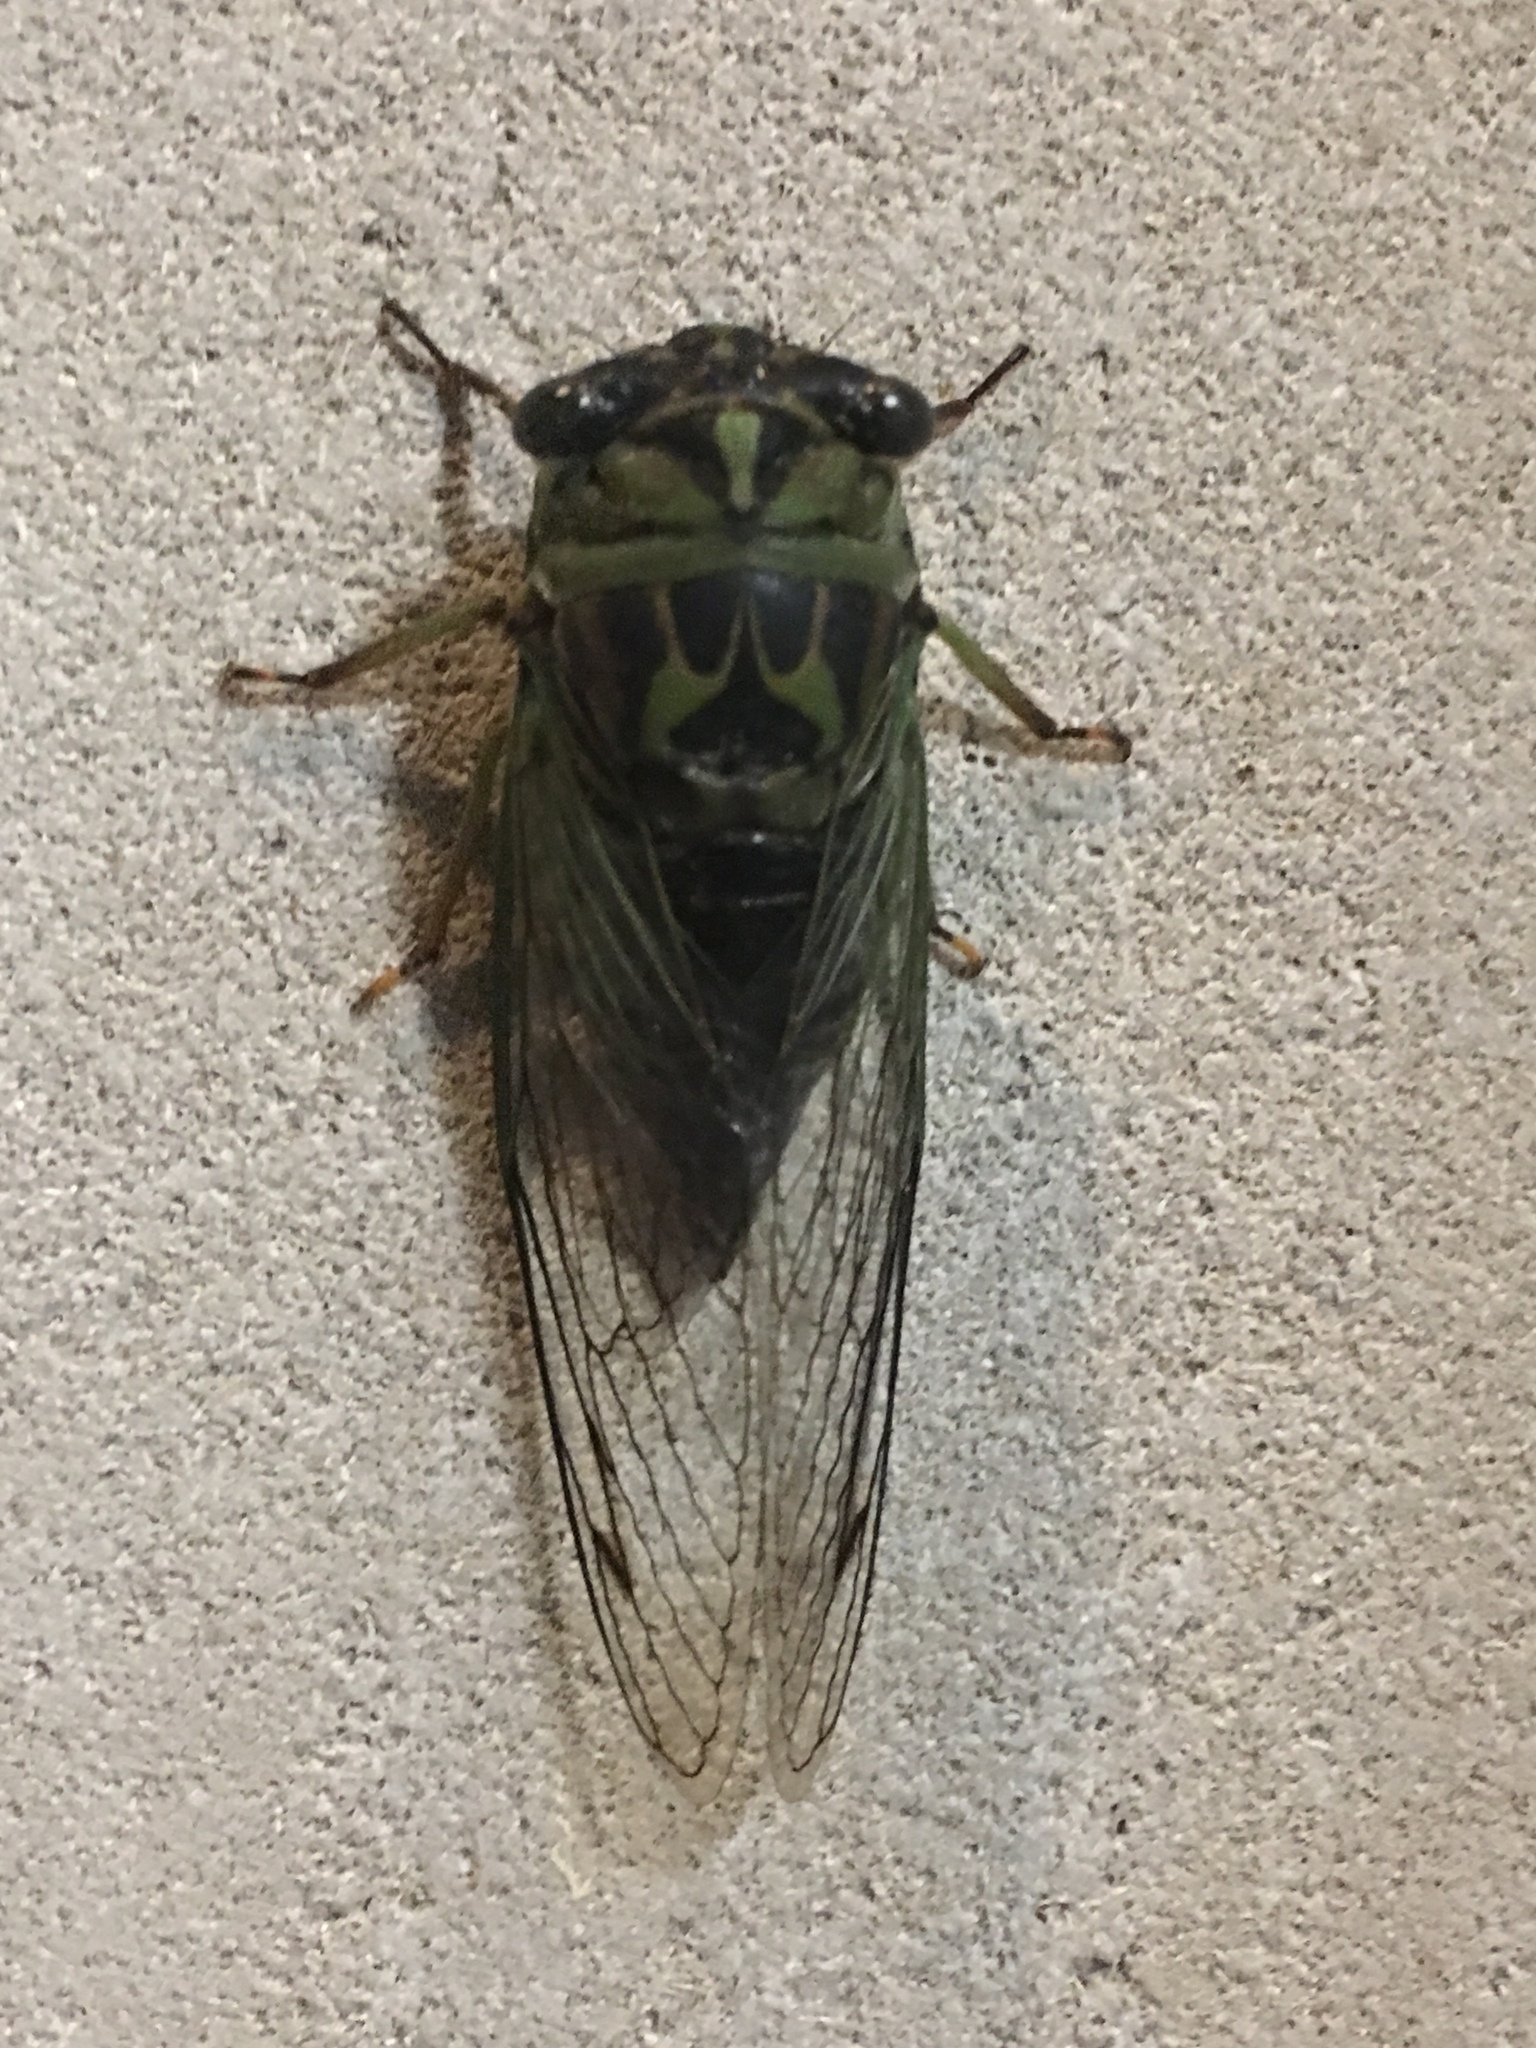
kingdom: Animalia
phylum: Arthropoda
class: Insecta
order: Hemiptera
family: Cicadidae
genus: Neotibicen
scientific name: Neotibicen linnei
